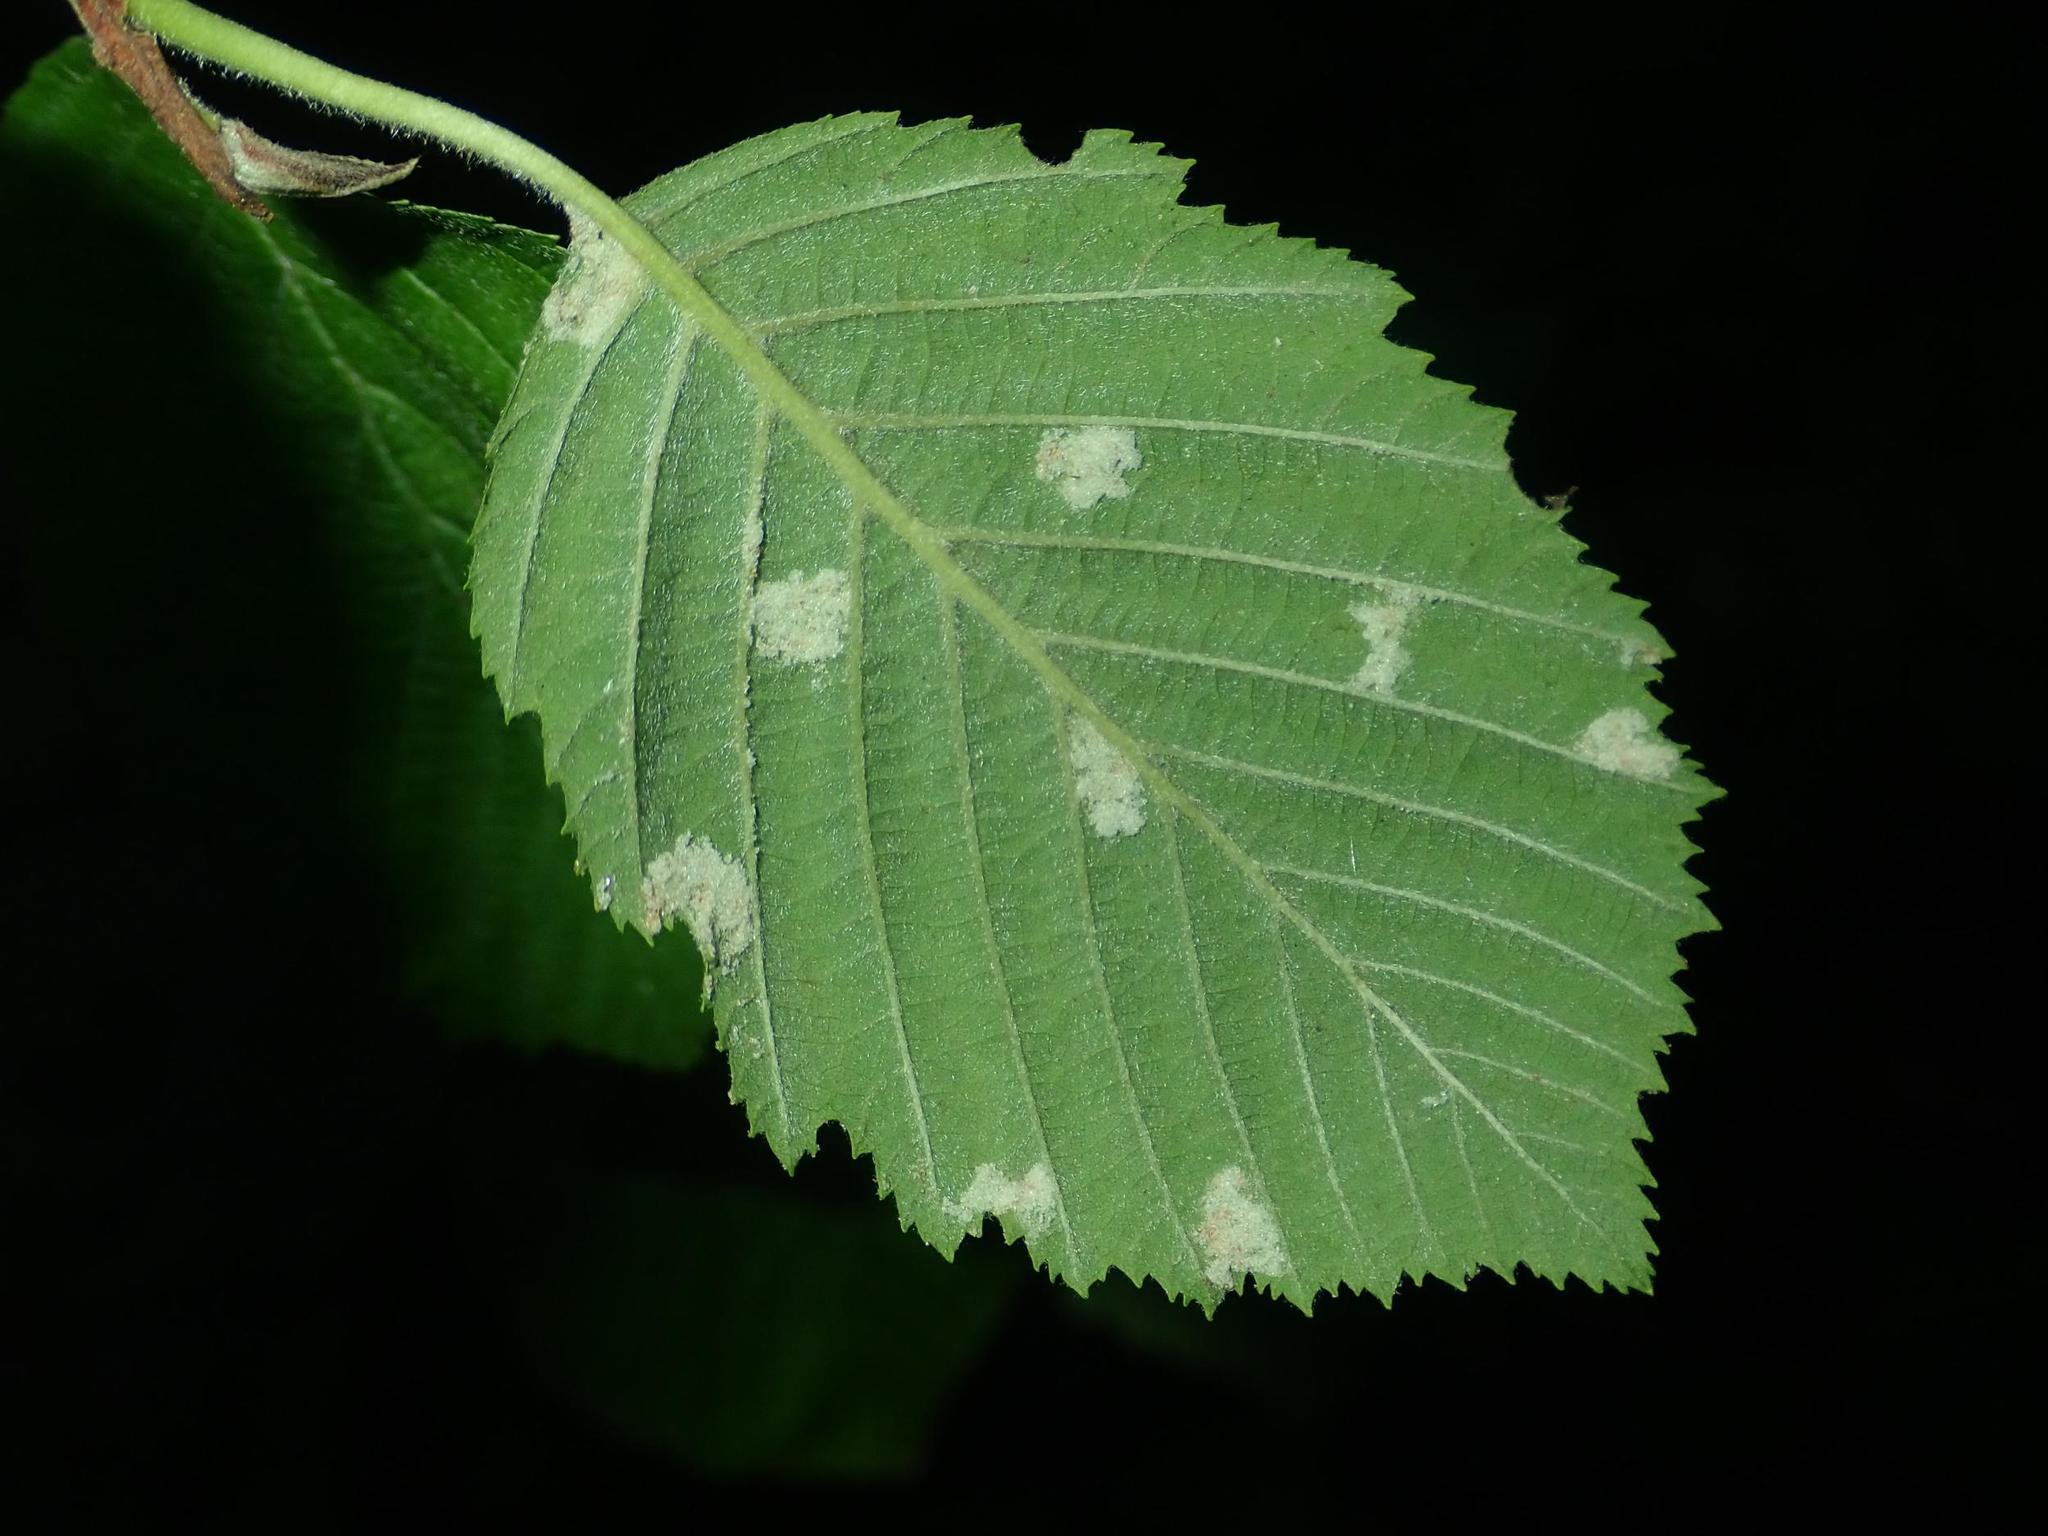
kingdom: Animalia
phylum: Arthropoda
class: Arachnida
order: Trombidiformes
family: Eriophyidae
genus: Acalitus
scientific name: Acalitus phyllereus
